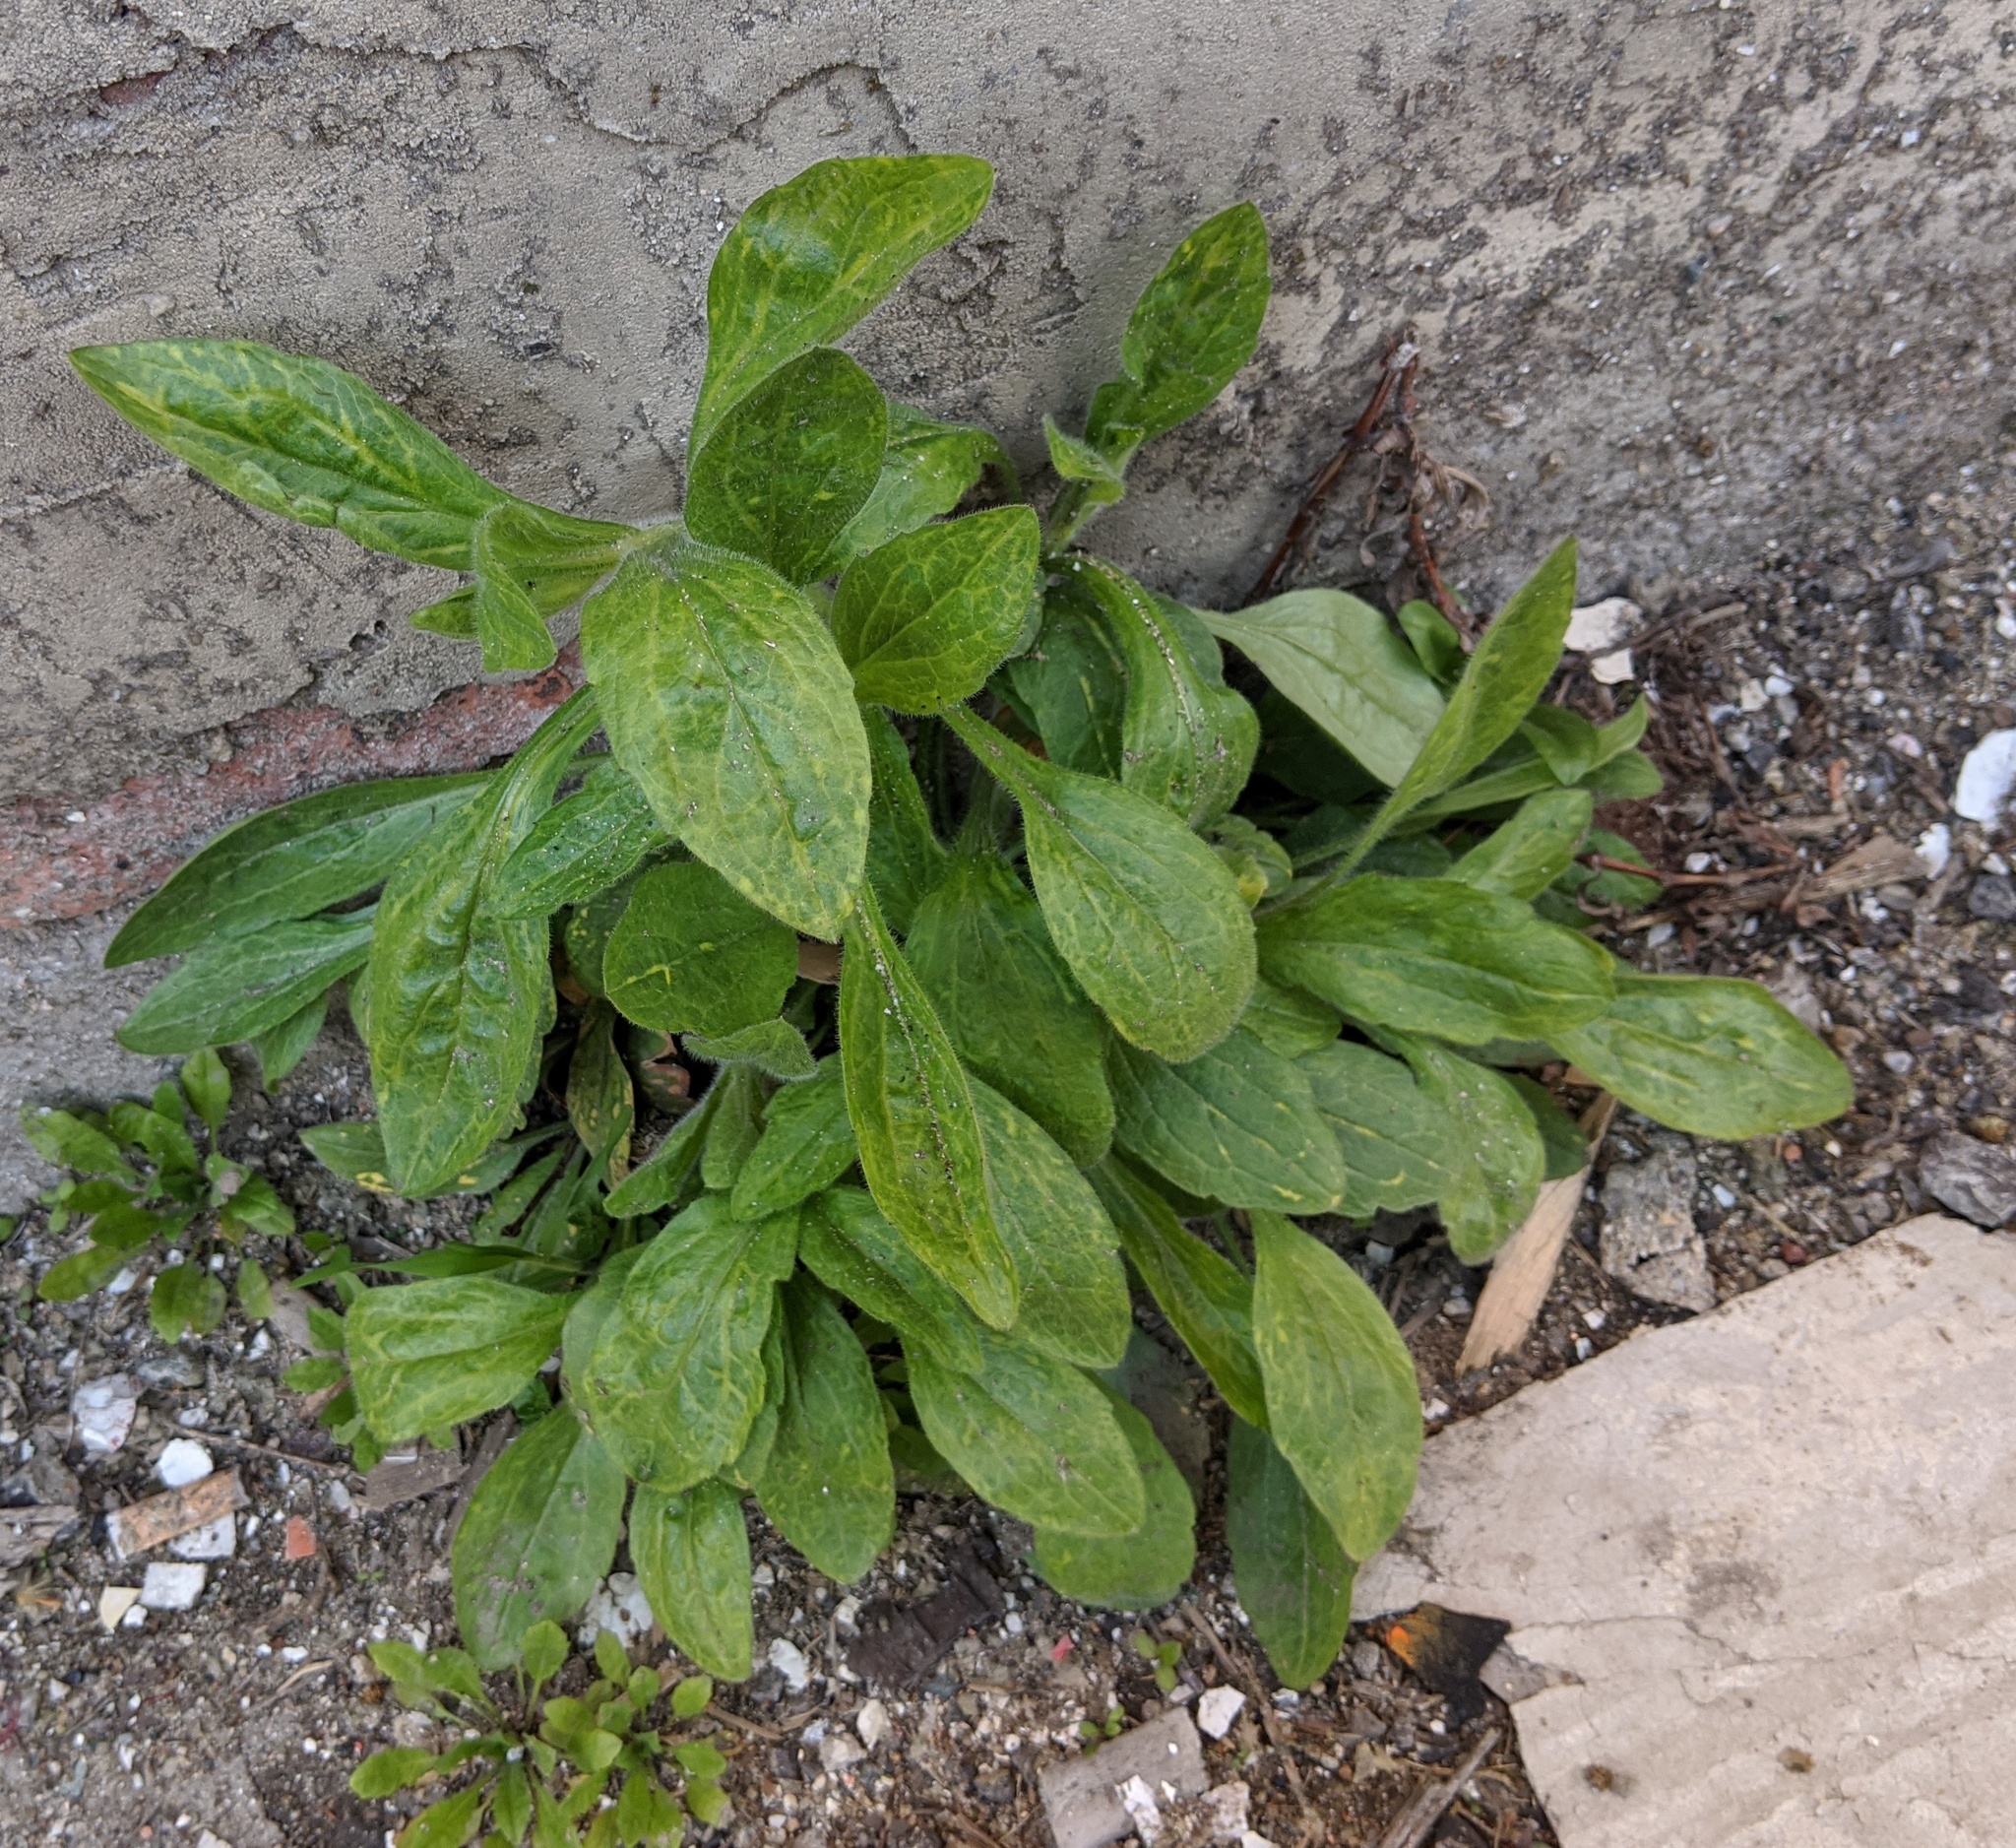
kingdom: Plantae
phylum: Tracheophyta
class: Magnoliopsida
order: Asterales
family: Asteraceae
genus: Erigeron
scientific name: Erigeron philadelphicus
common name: Robin's-plantain
